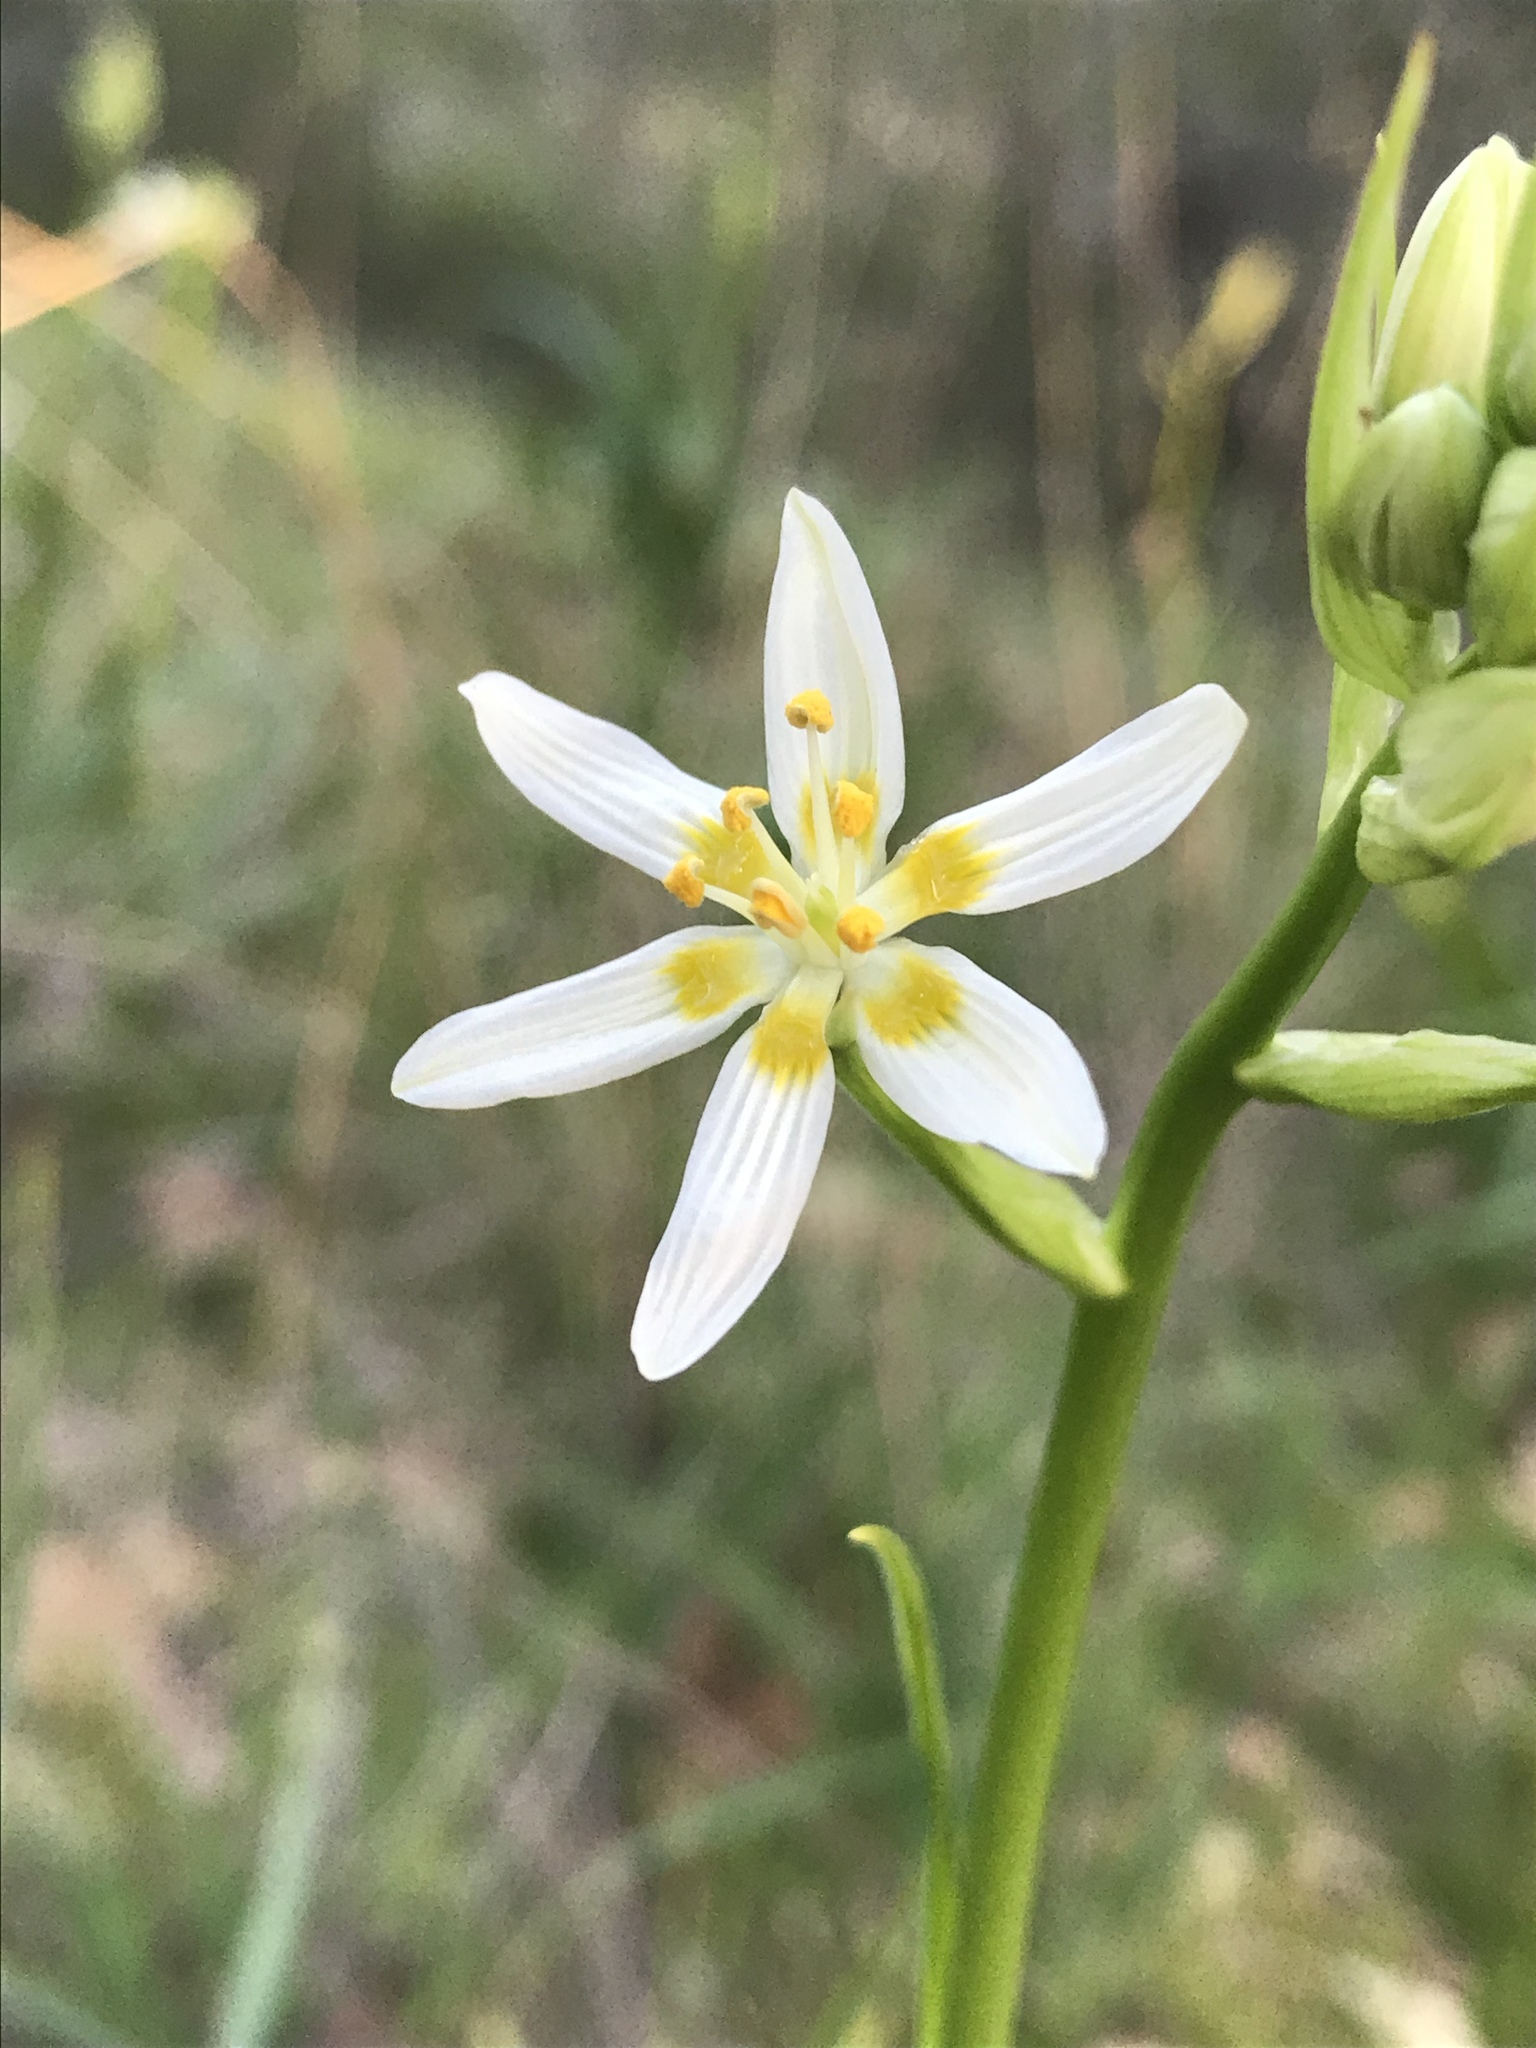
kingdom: Plantae
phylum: Tracheophyta
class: Liliopsida
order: Liliales
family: Melanthiaceae
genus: Toxicoscordion
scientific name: Toxicoscordion fremontii
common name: Fremont's death camas
